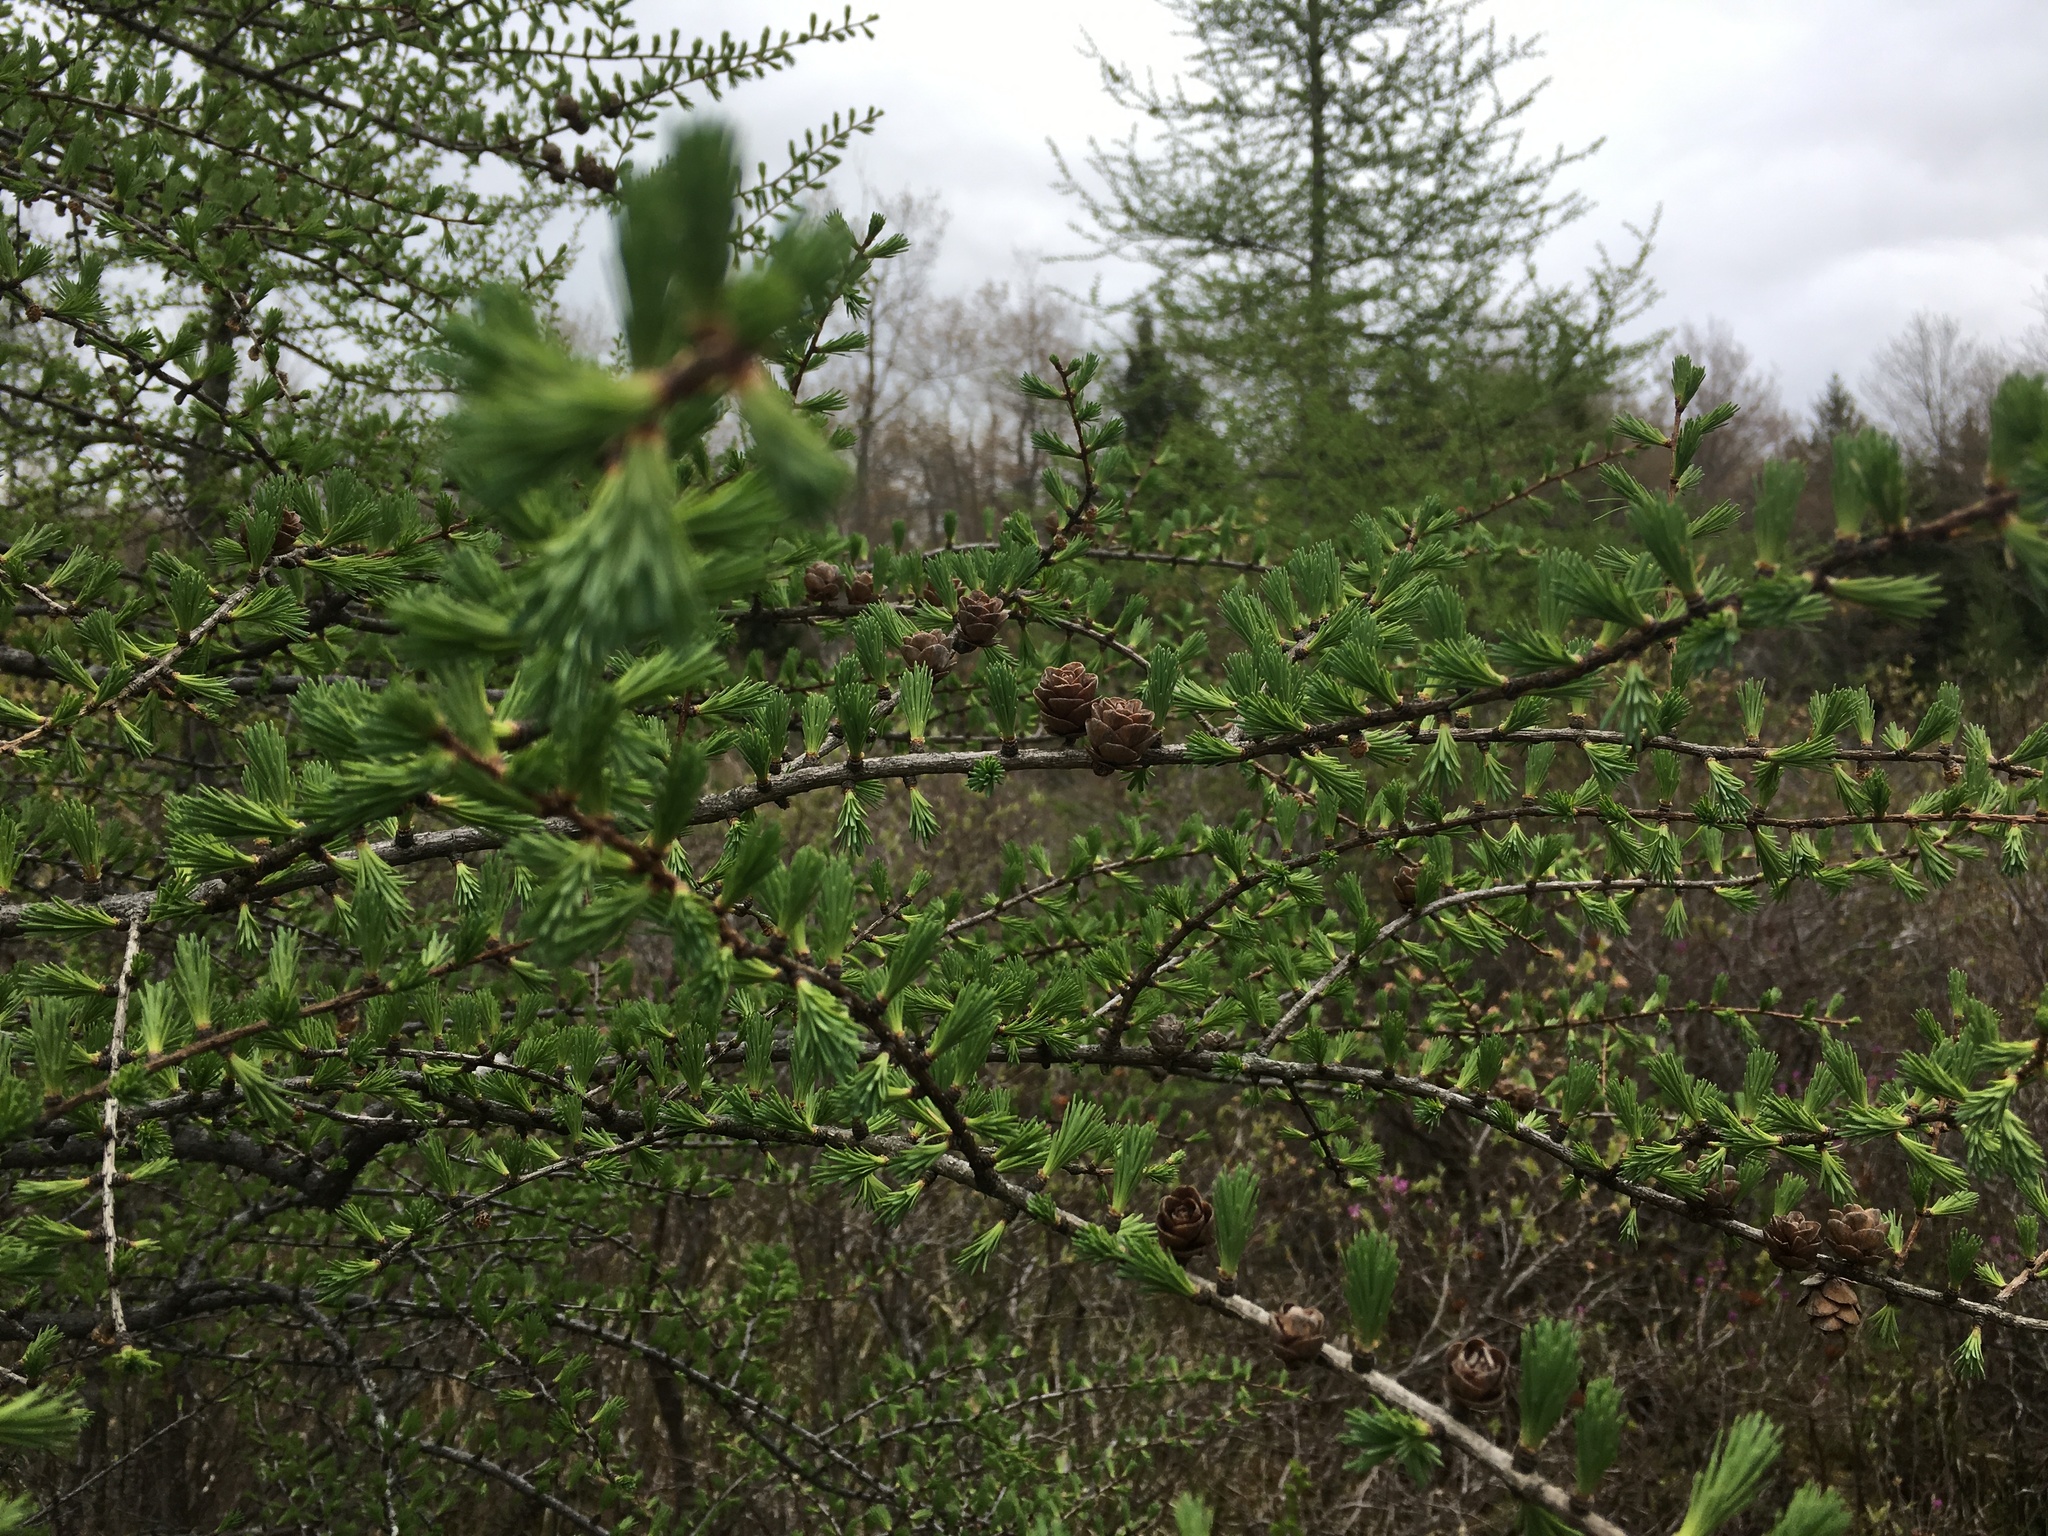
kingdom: Plantae
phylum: Tracheophyta
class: Pinopsida
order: Pinales
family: Pinaceae
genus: Larix
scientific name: Larix laricina
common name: American larch
